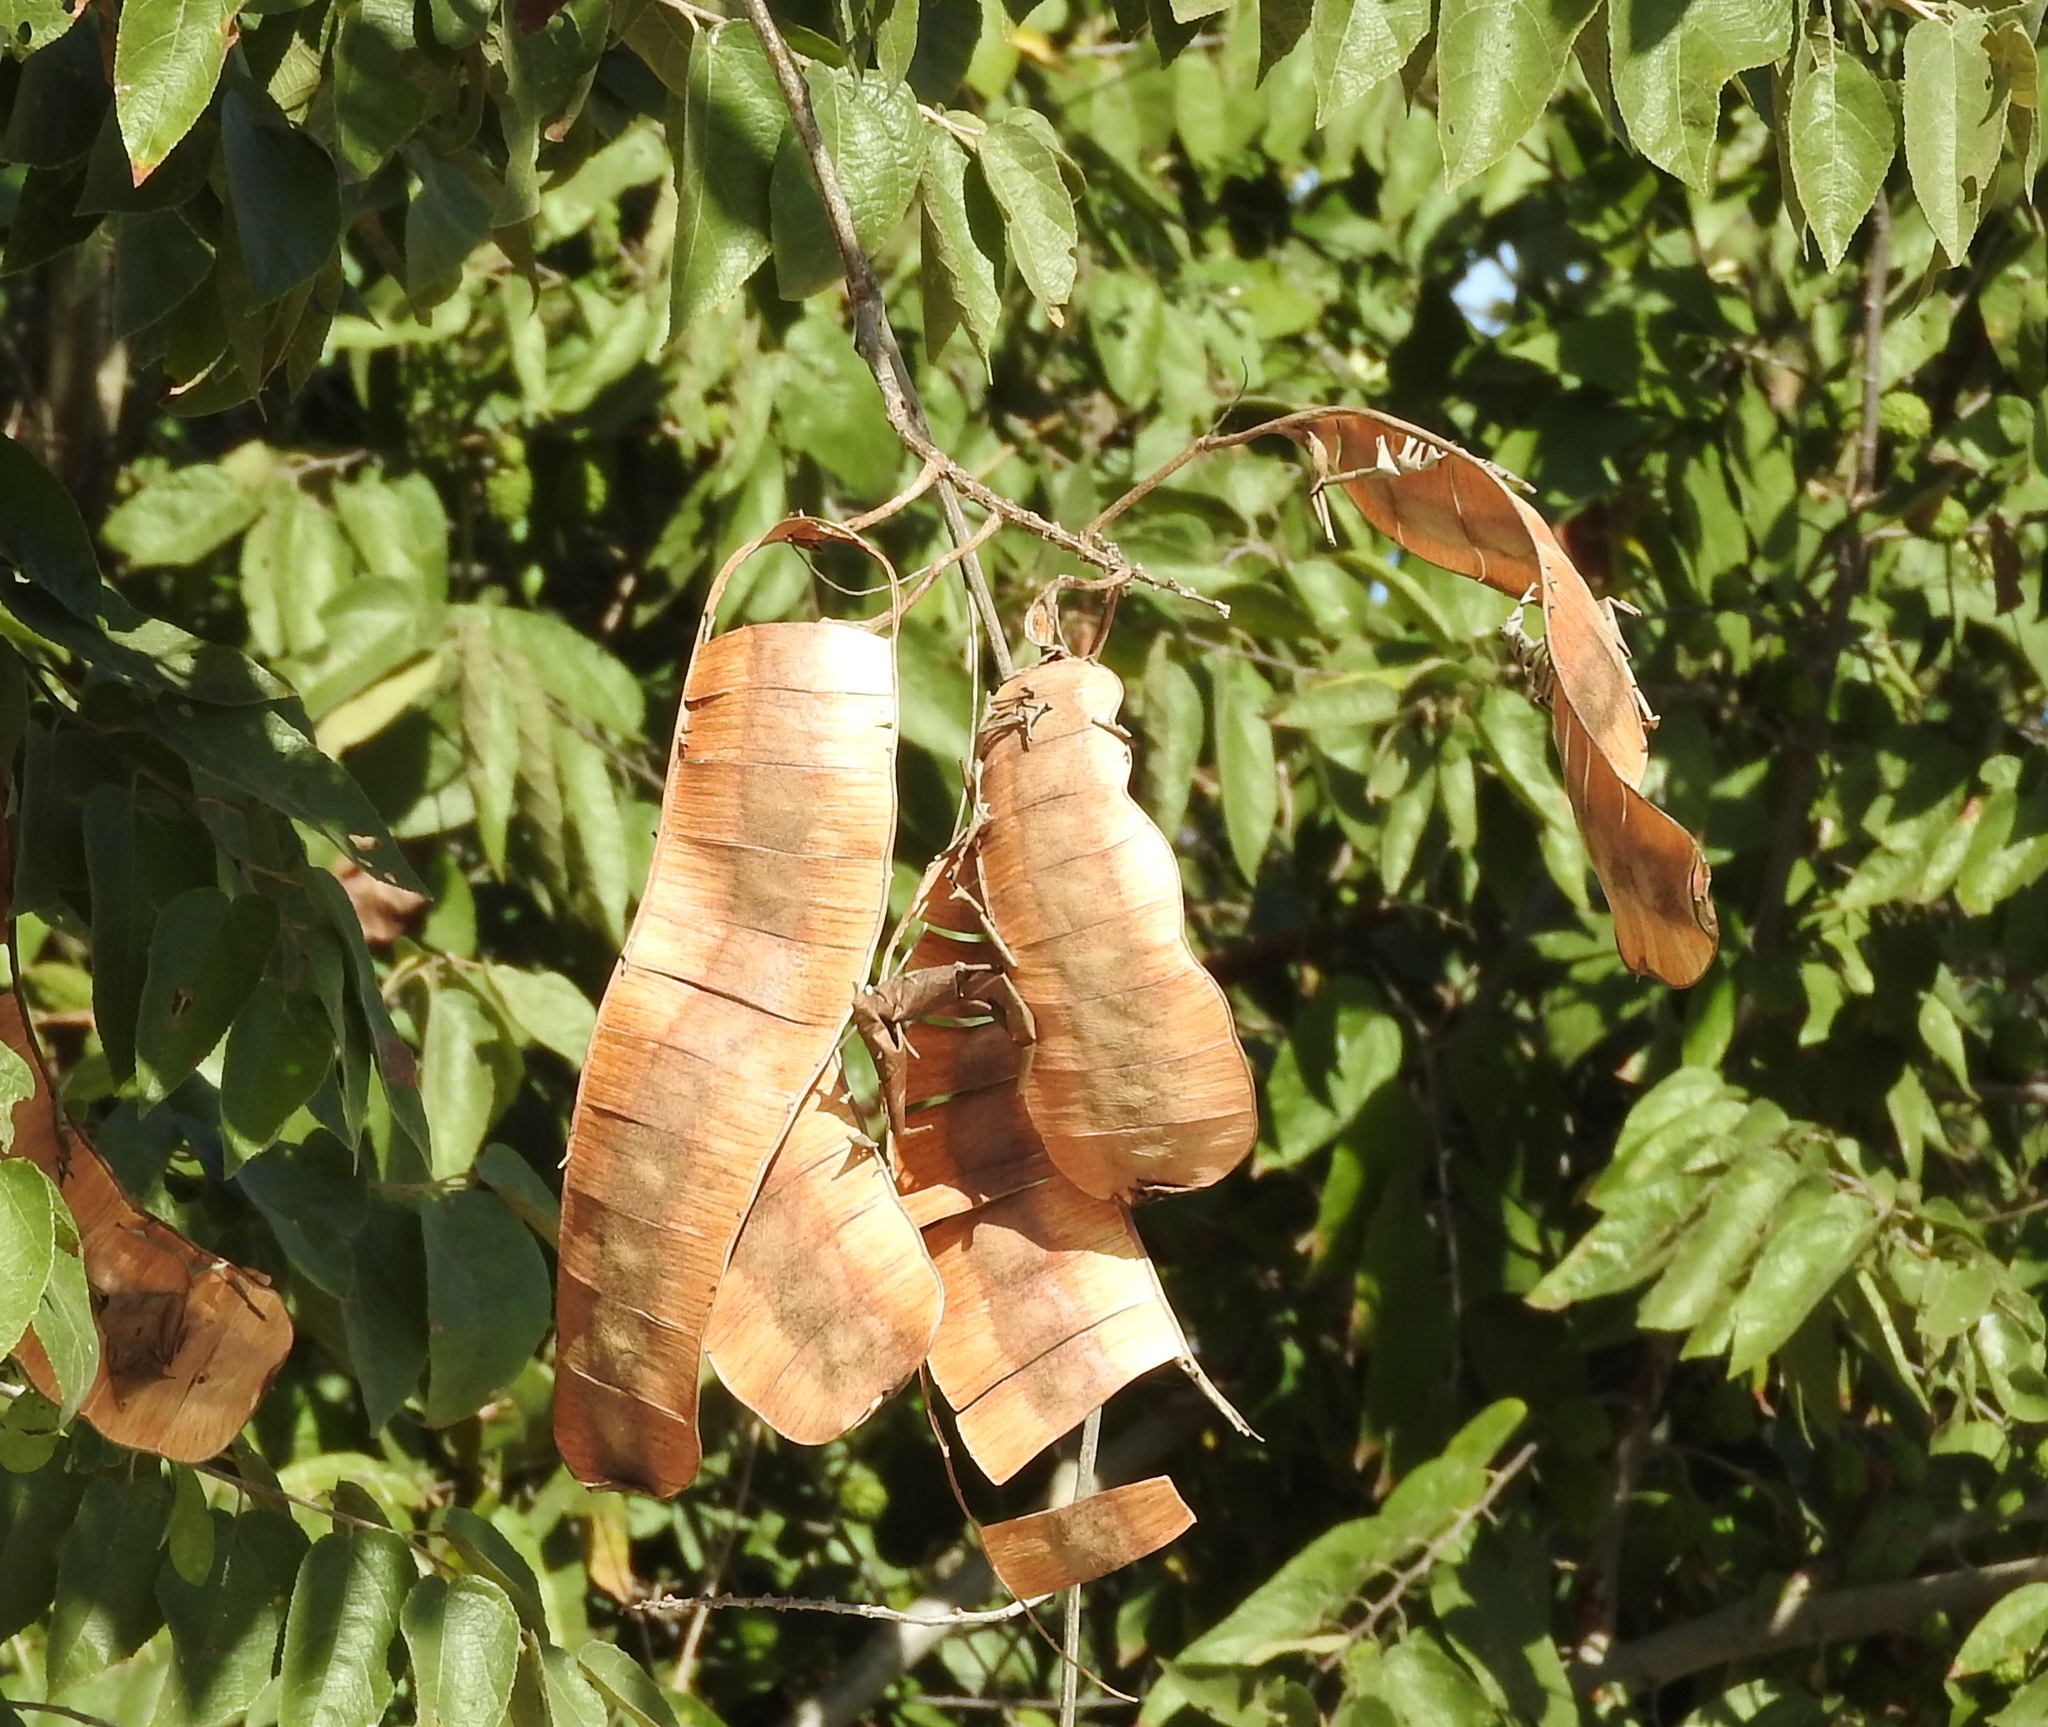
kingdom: Plantae
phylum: Tracheophyta
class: Magnoliopsida
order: Fabales
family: Fabaceae
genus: Entada
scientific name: Entada polystachya
